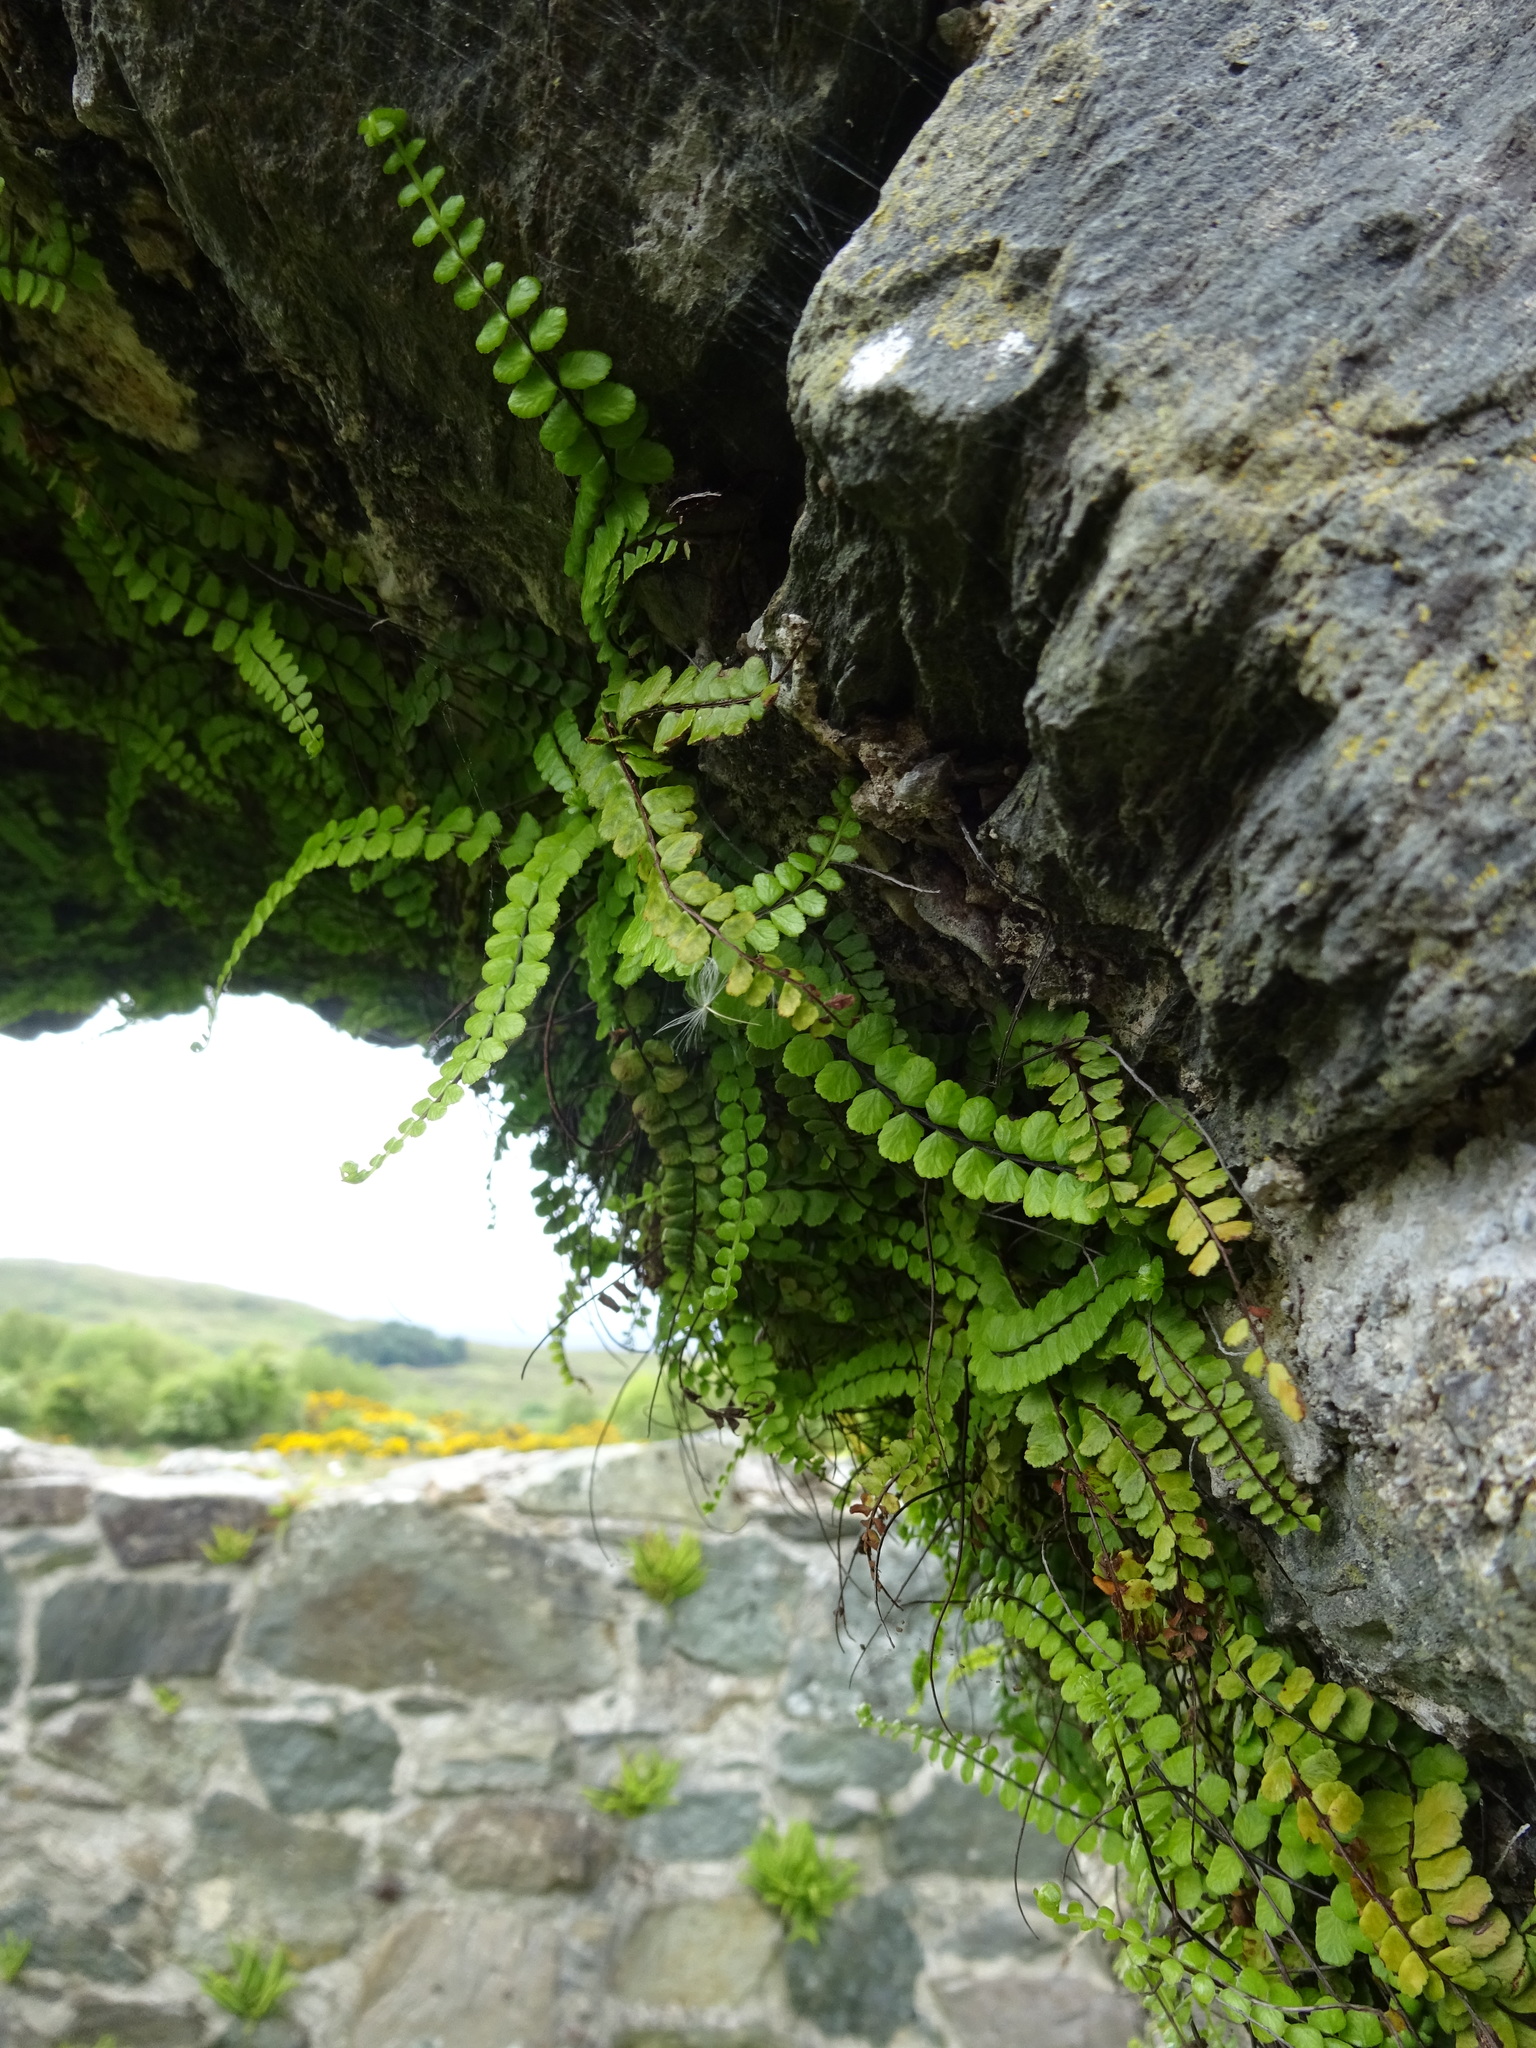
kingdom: Plantae
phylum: Tracheophyta
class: Polypodiopsida
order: Polypodiales
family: Aspleniaceae
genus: Asplenium
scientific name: Asplenium trichomanes
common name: Maidenhair spleenwort
